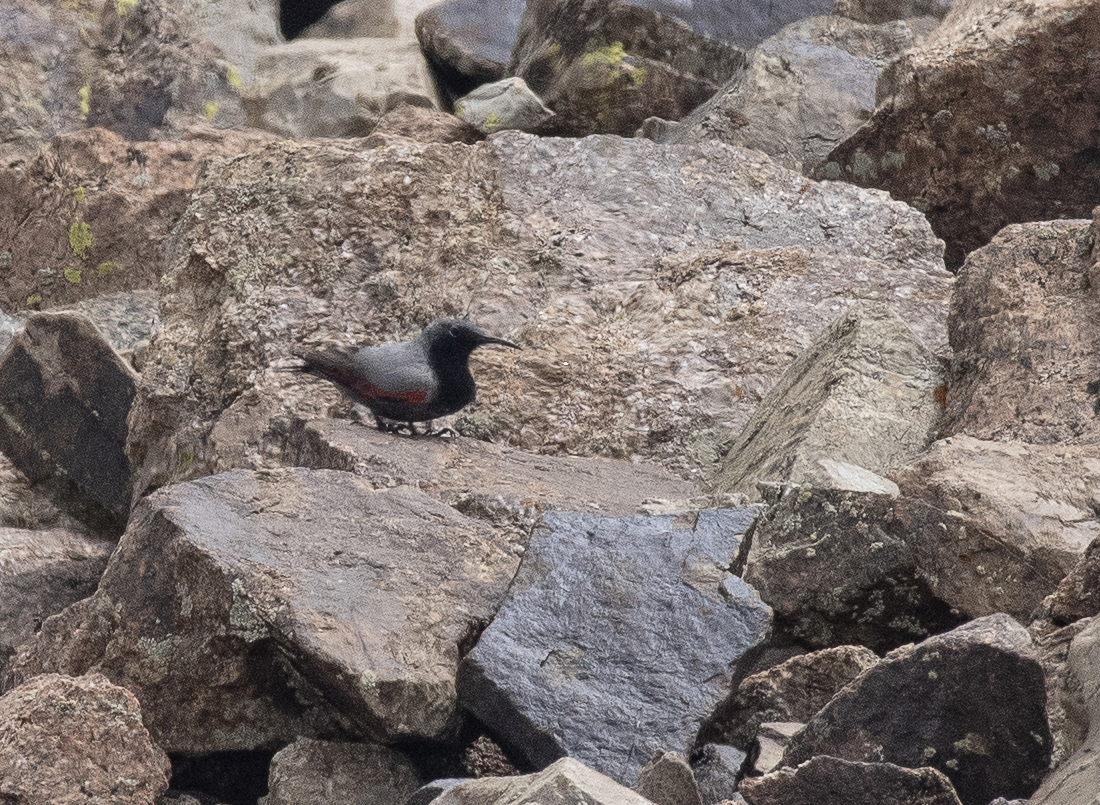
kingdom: Animalia
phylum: Chordata
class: Aves
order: Passeriformes
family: Tichodromidae
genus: Tichodroma
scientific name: Tichodroma muraria
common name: Wallcreeper
